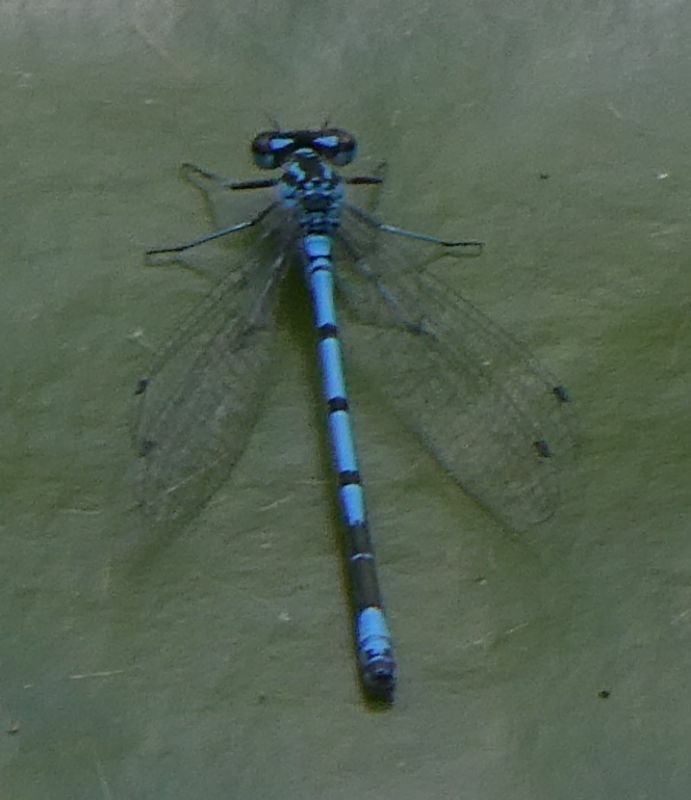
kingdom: Animalia
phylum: Arthropoda
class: Insecta
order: Odonata
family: Coenagrionidae
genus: Coenagrion
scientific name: Coenagrion puella
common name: Azure damselfly
